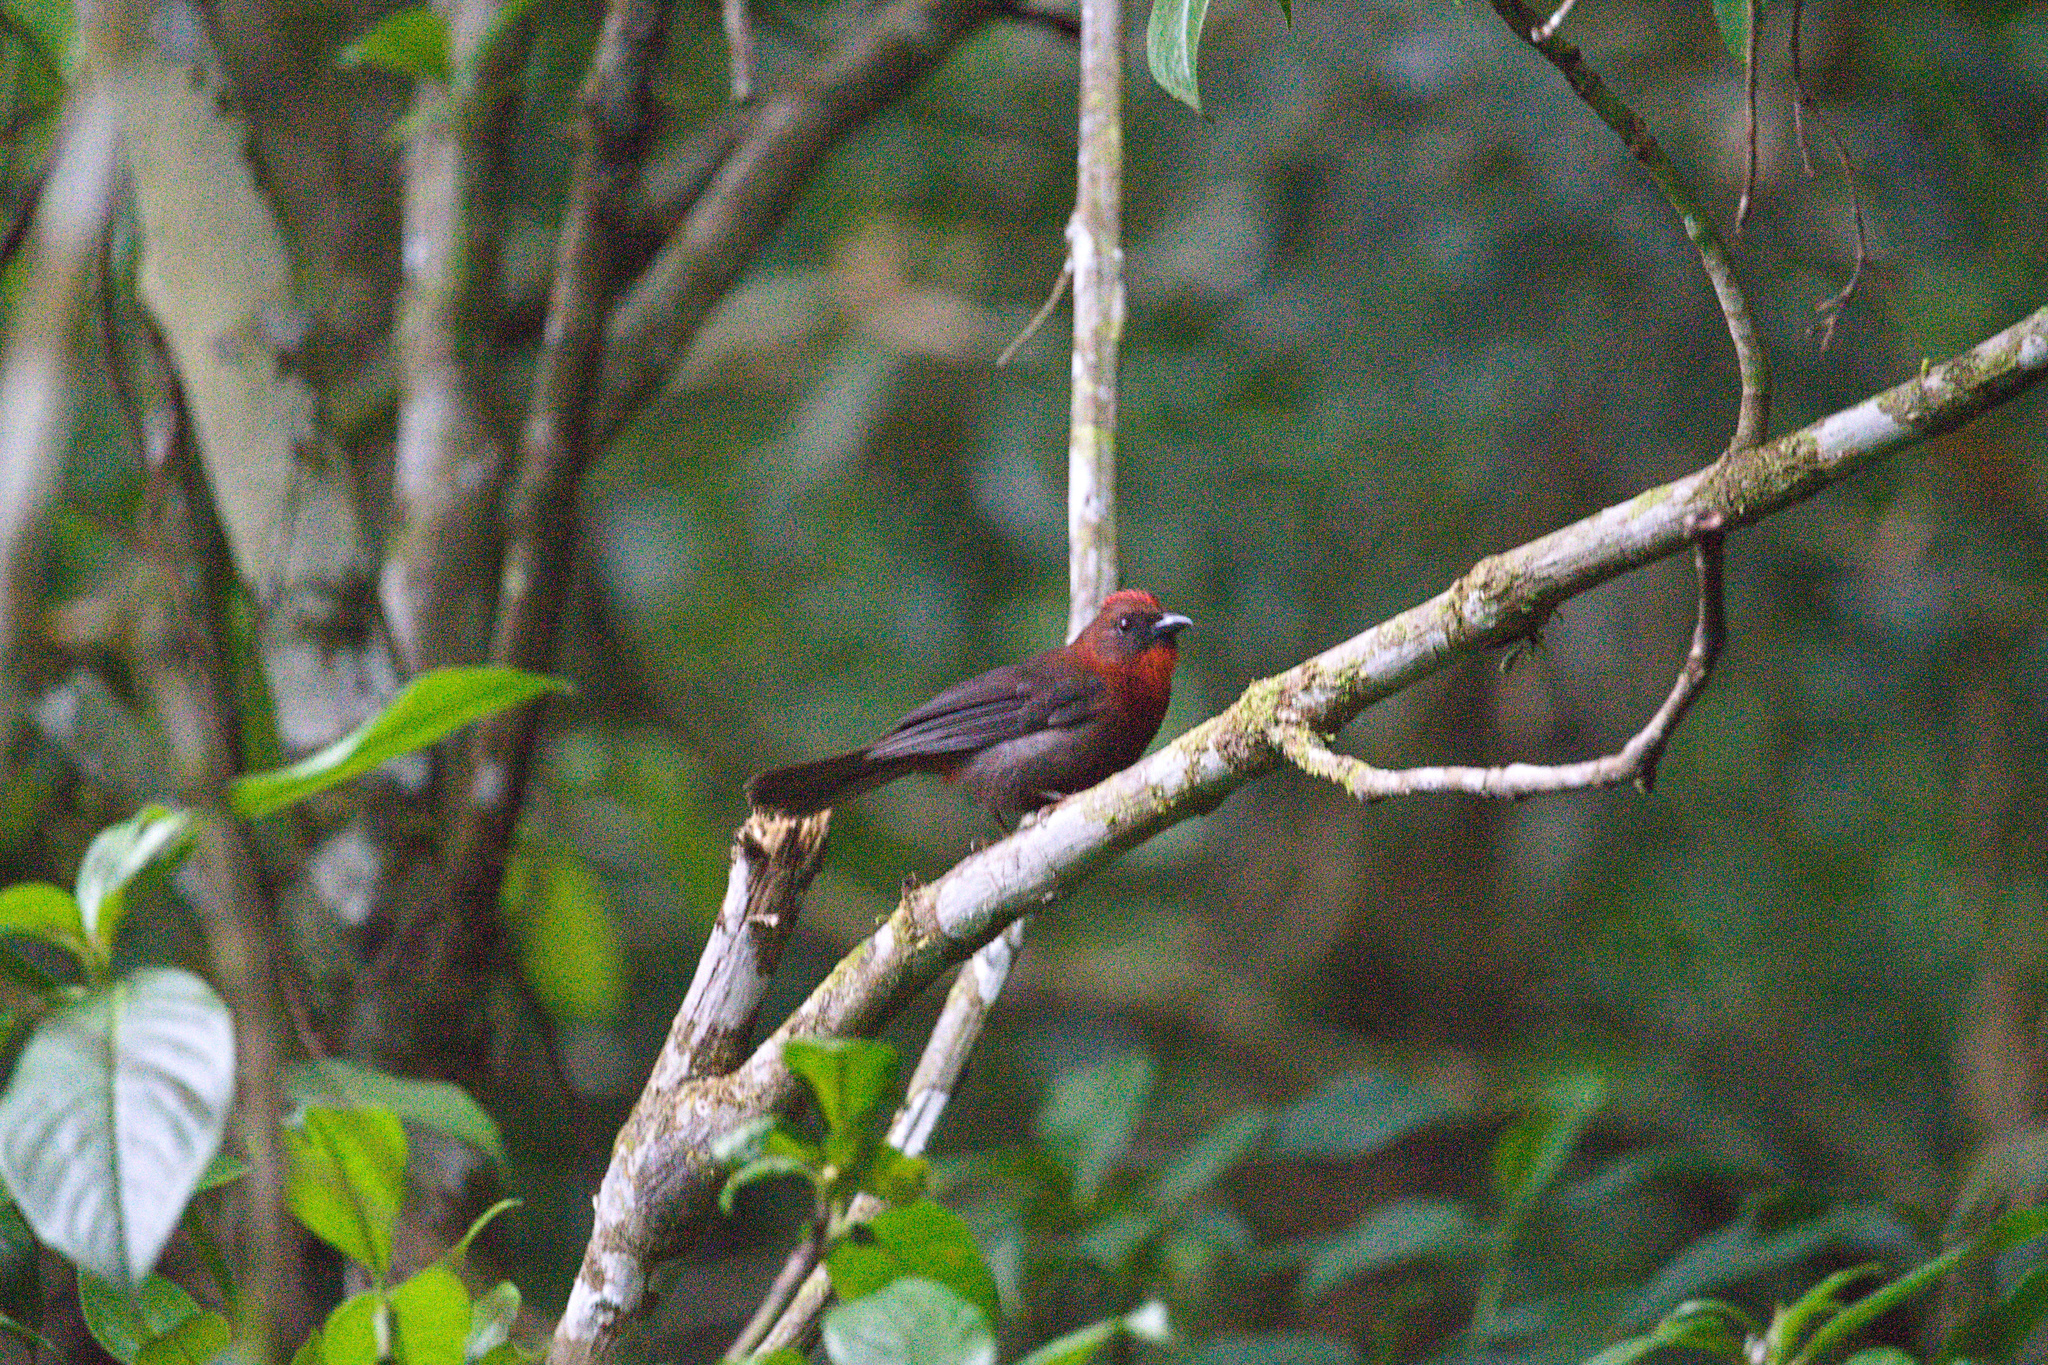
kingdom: Animalia
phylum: Chordata
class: Aves
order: Passeriformes
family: Cardinalidae
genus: Habia
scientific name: Habia fuscicauda
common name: Red-throated ant-tanager
